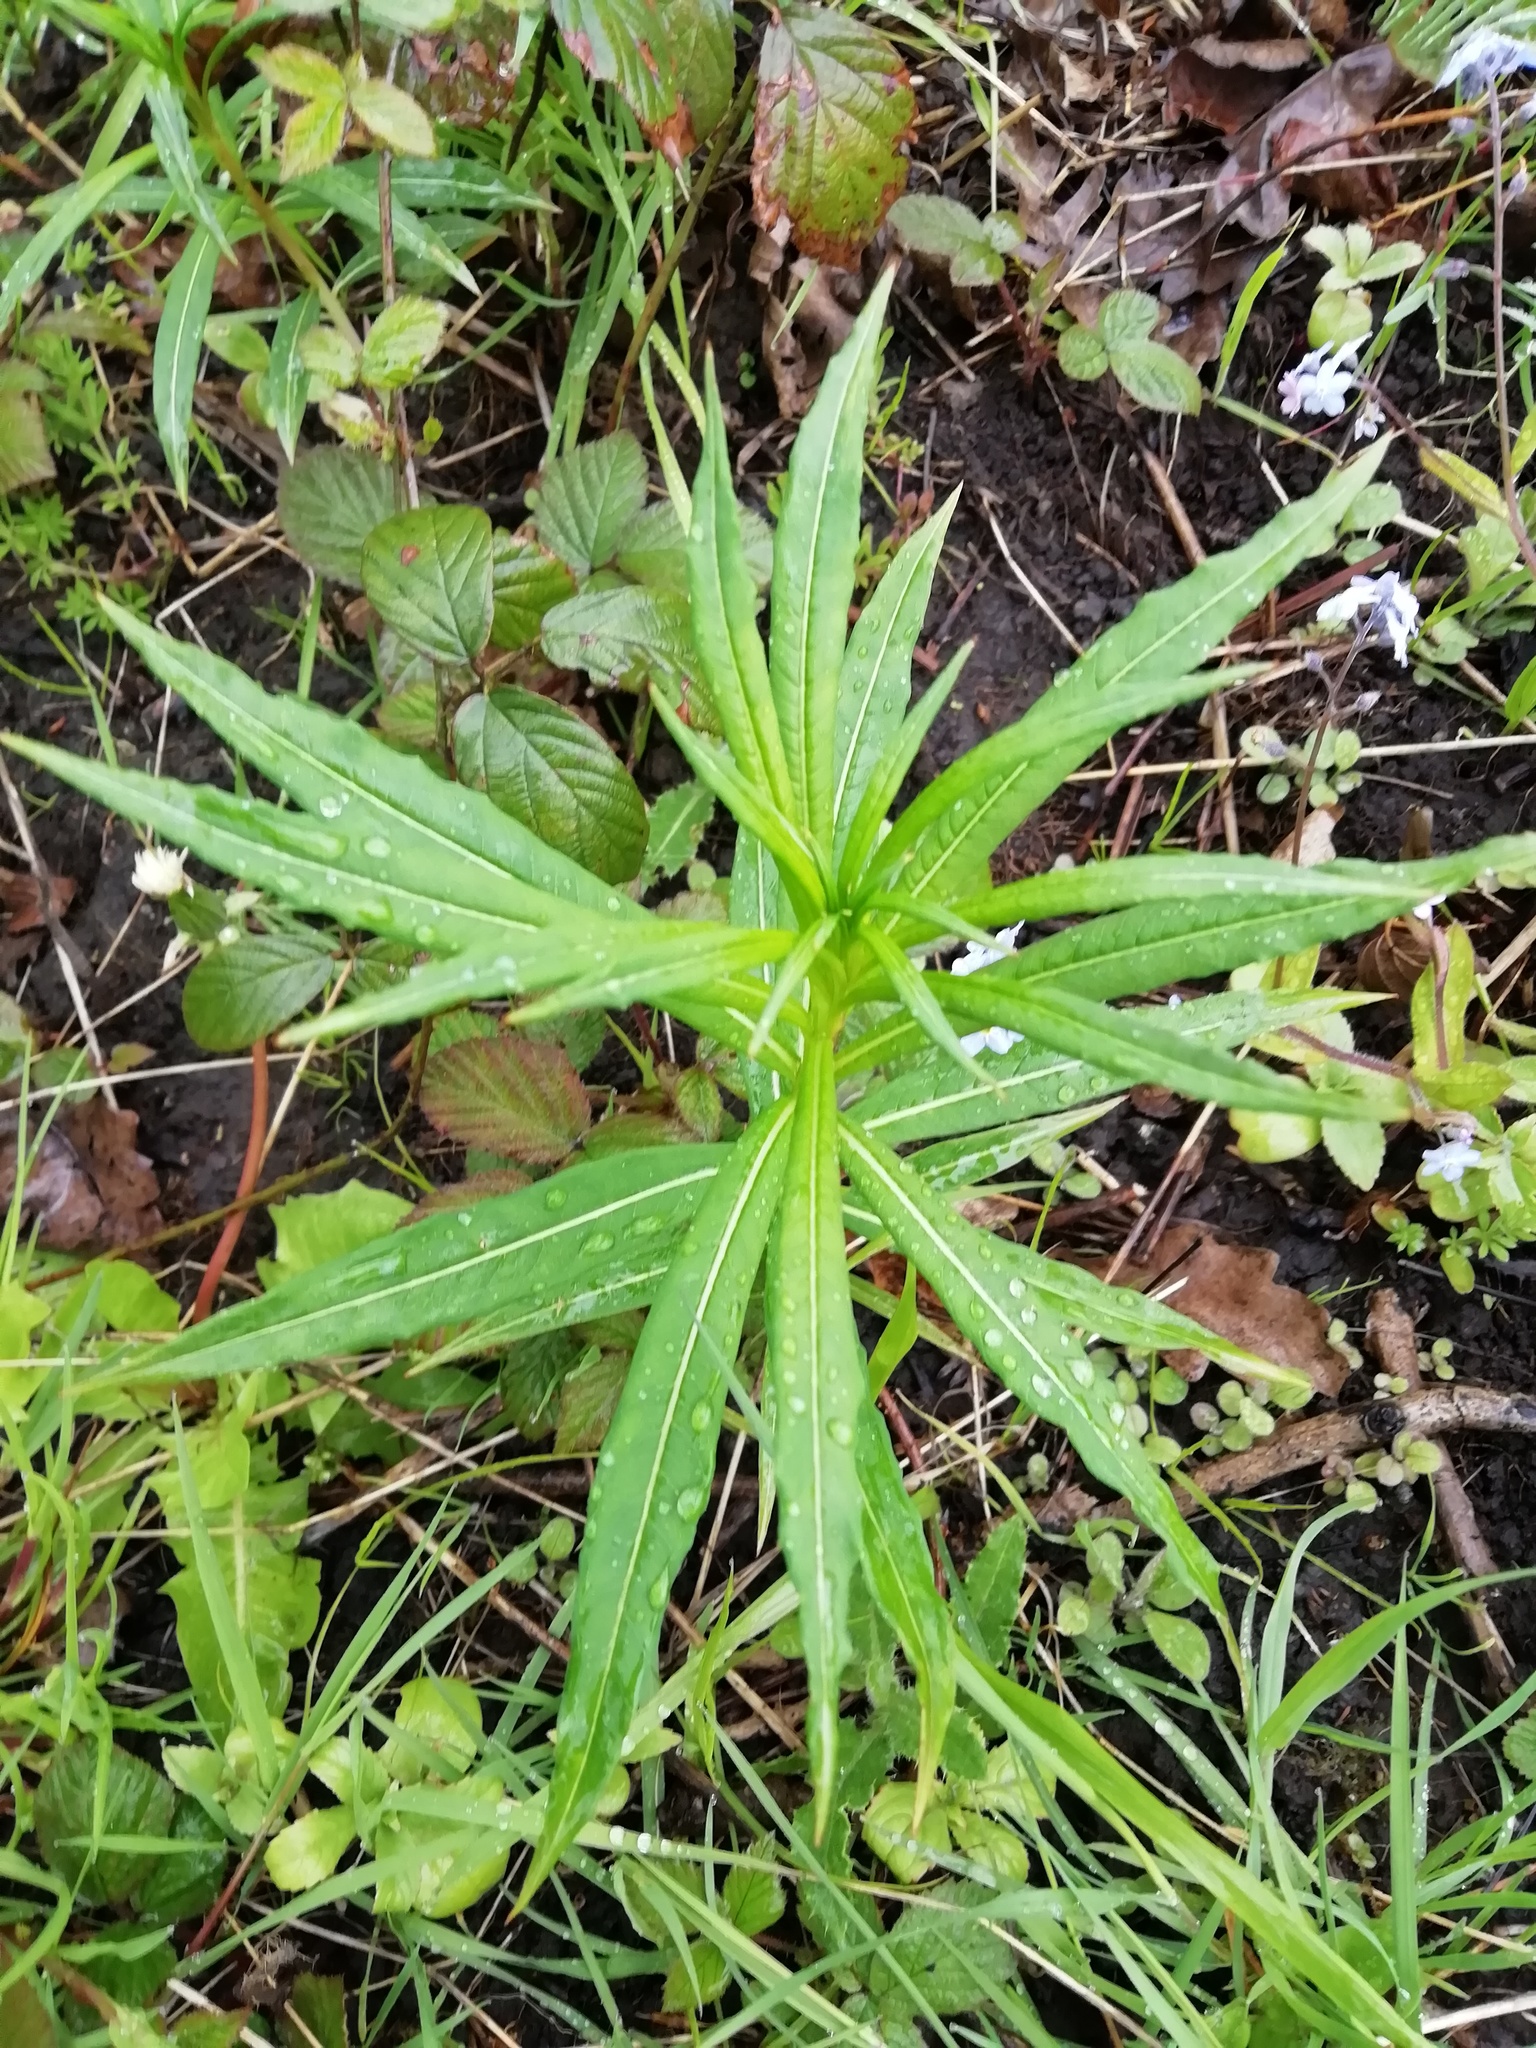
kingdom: Plantae
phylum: Tracheophyta
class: Magnoliopsida
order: Myrtales
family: Onagraceae
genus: Chamaenerion
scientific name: Chamaenerion angustifolium
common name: Fireweed
